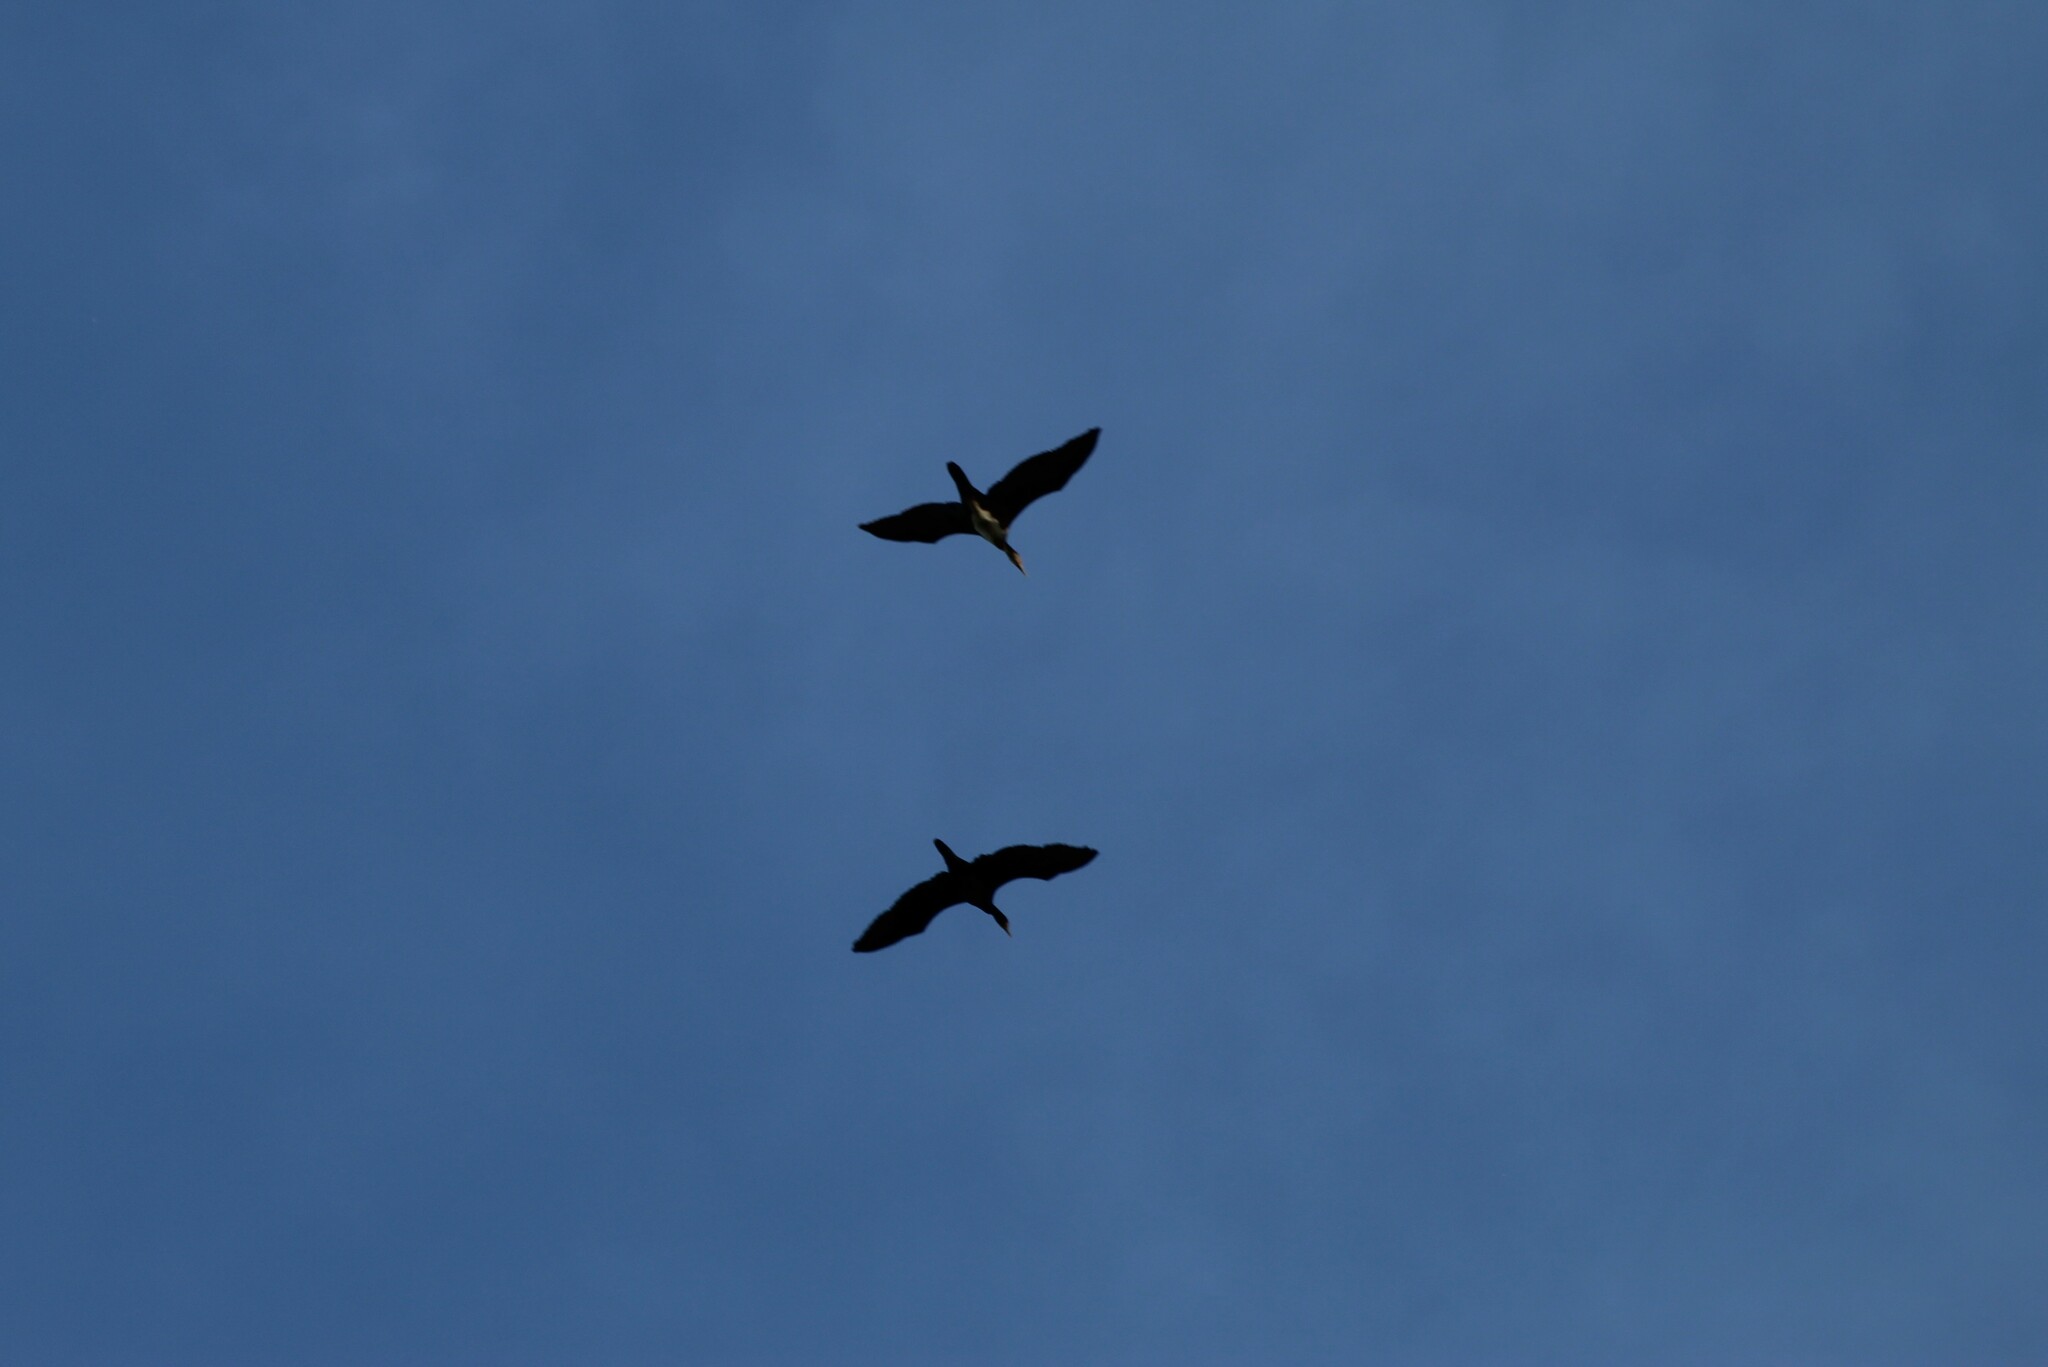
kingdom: Animalia
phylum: Chordata
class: Aves
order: Suliformes
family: Phalacrocoracidae
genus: Phalacrocorax
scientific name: Phalacrocorax carbo
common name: Great cormorant
